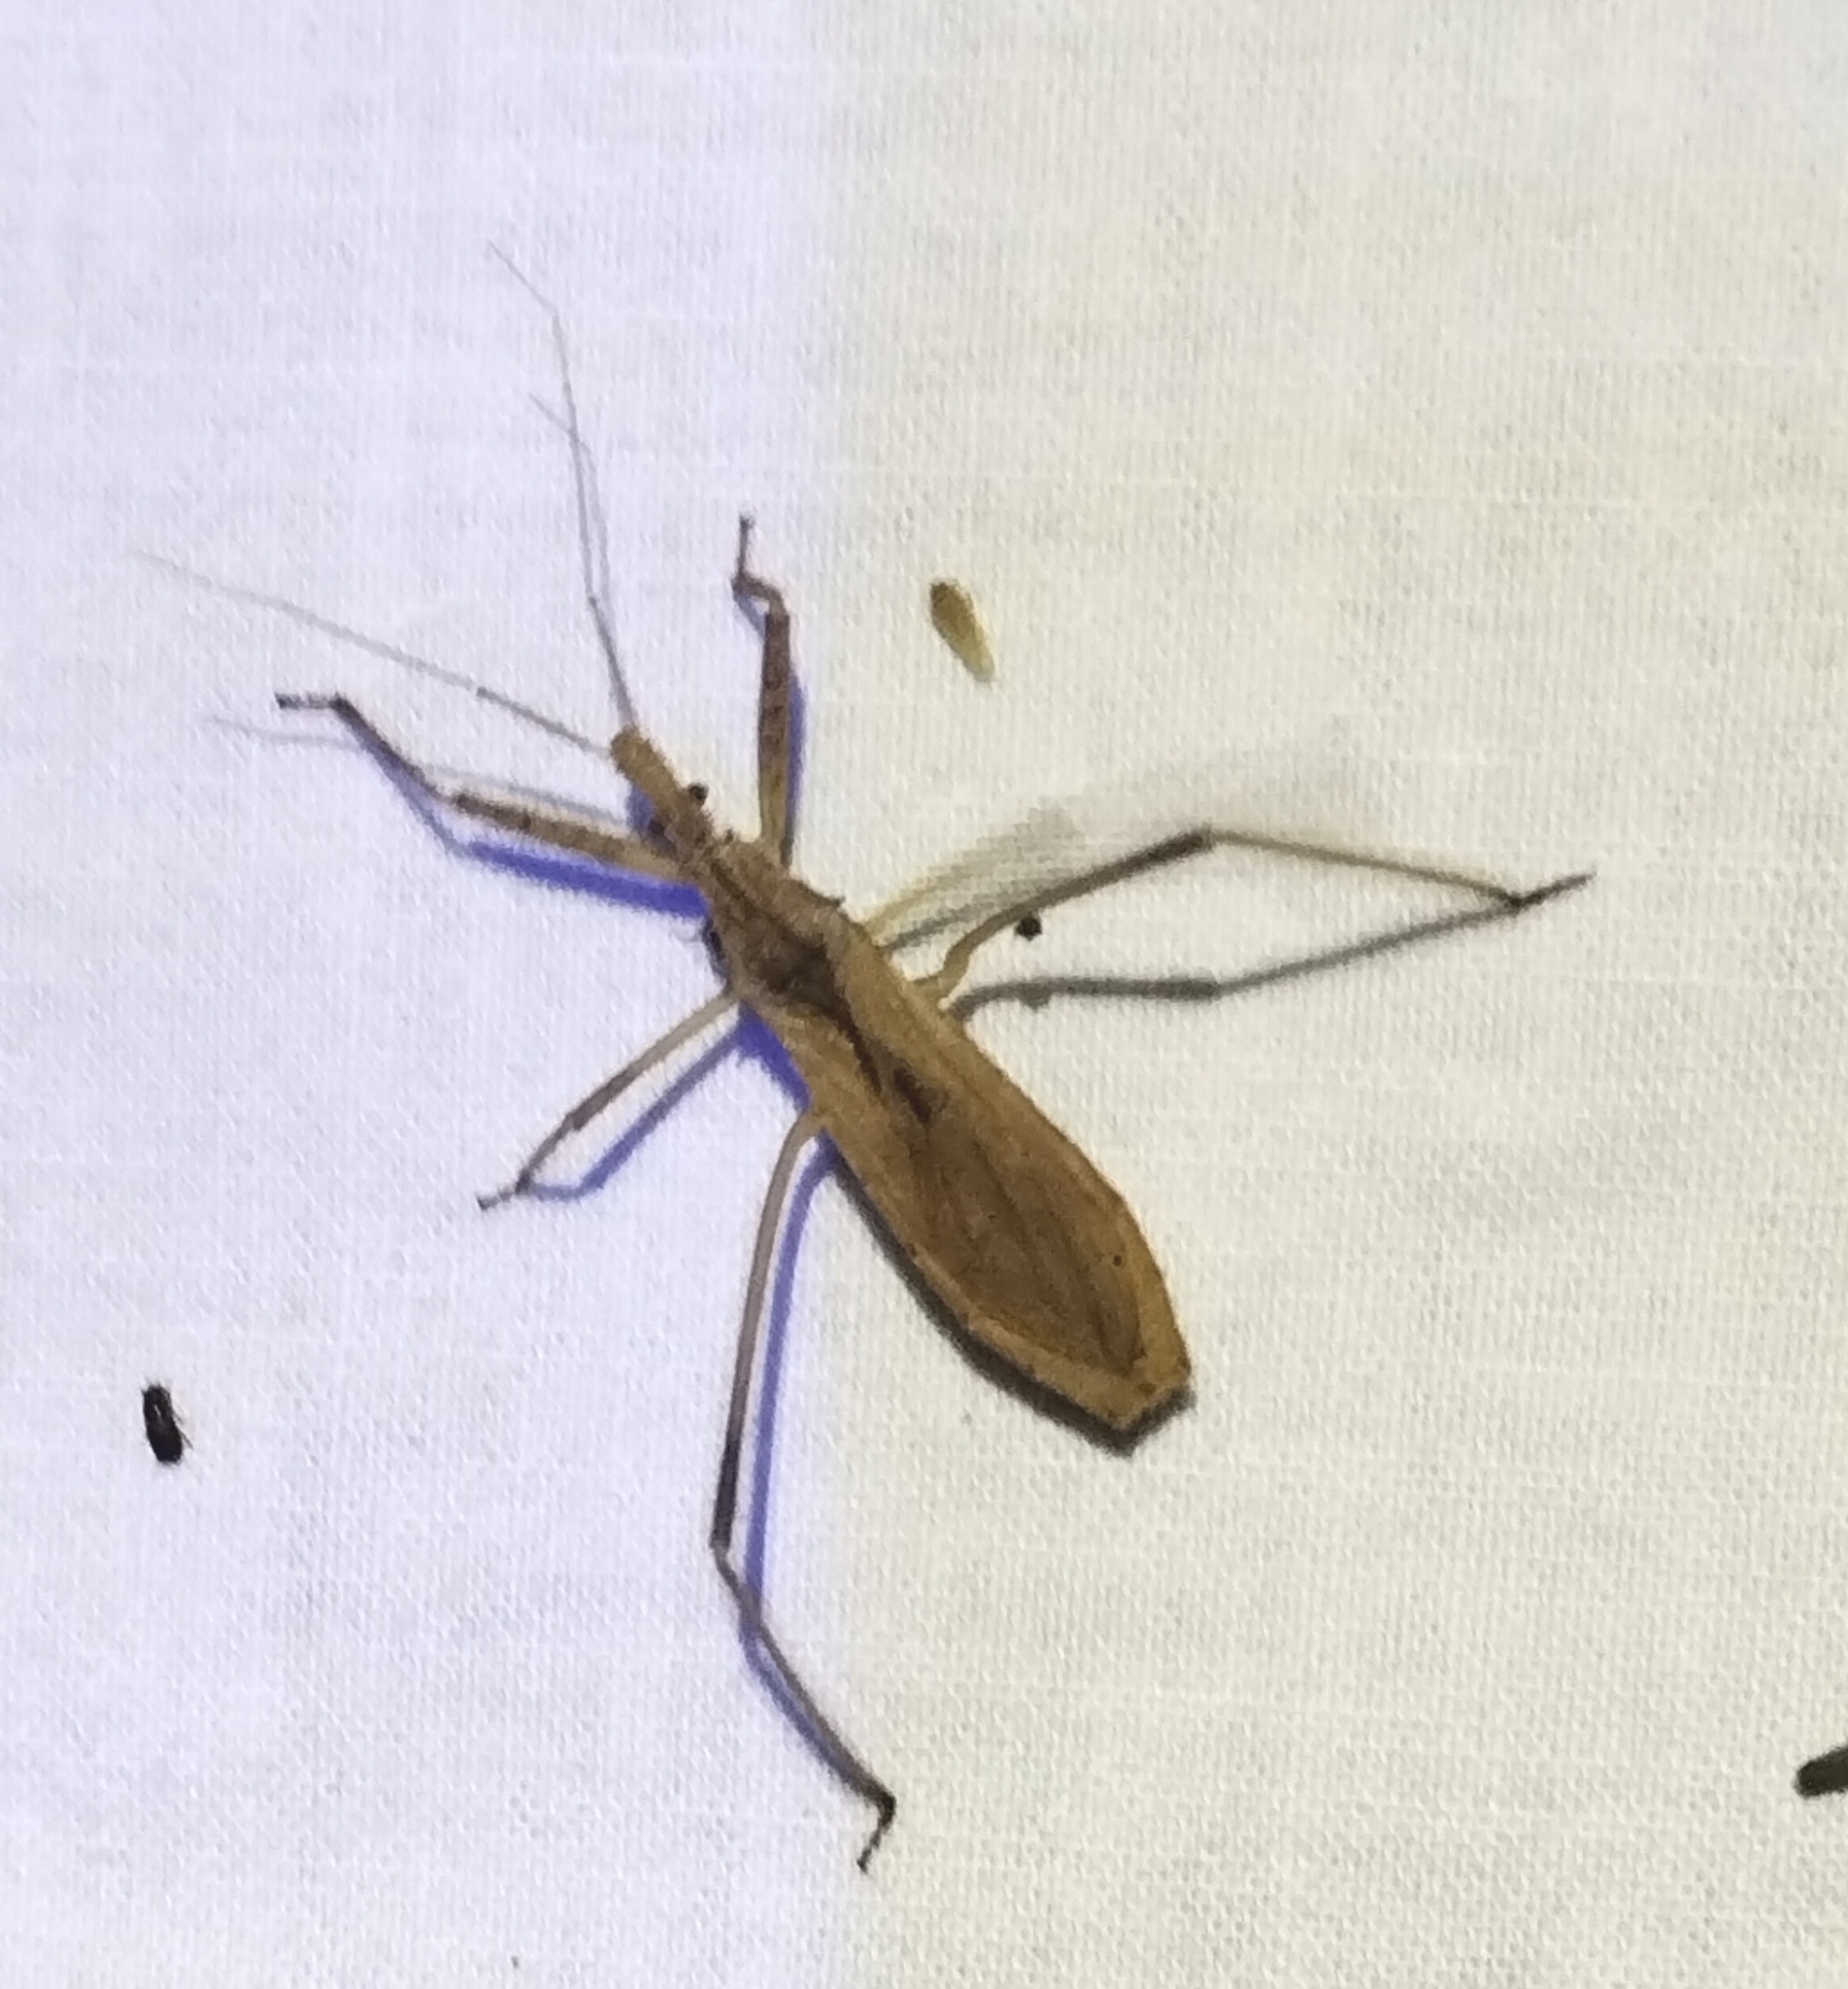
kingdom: Animalia
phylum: Arthropoda
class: Insecta
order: Hemiptera
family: Reduviidae
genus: Stenopoda
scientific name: Stenopoda spinulosa
